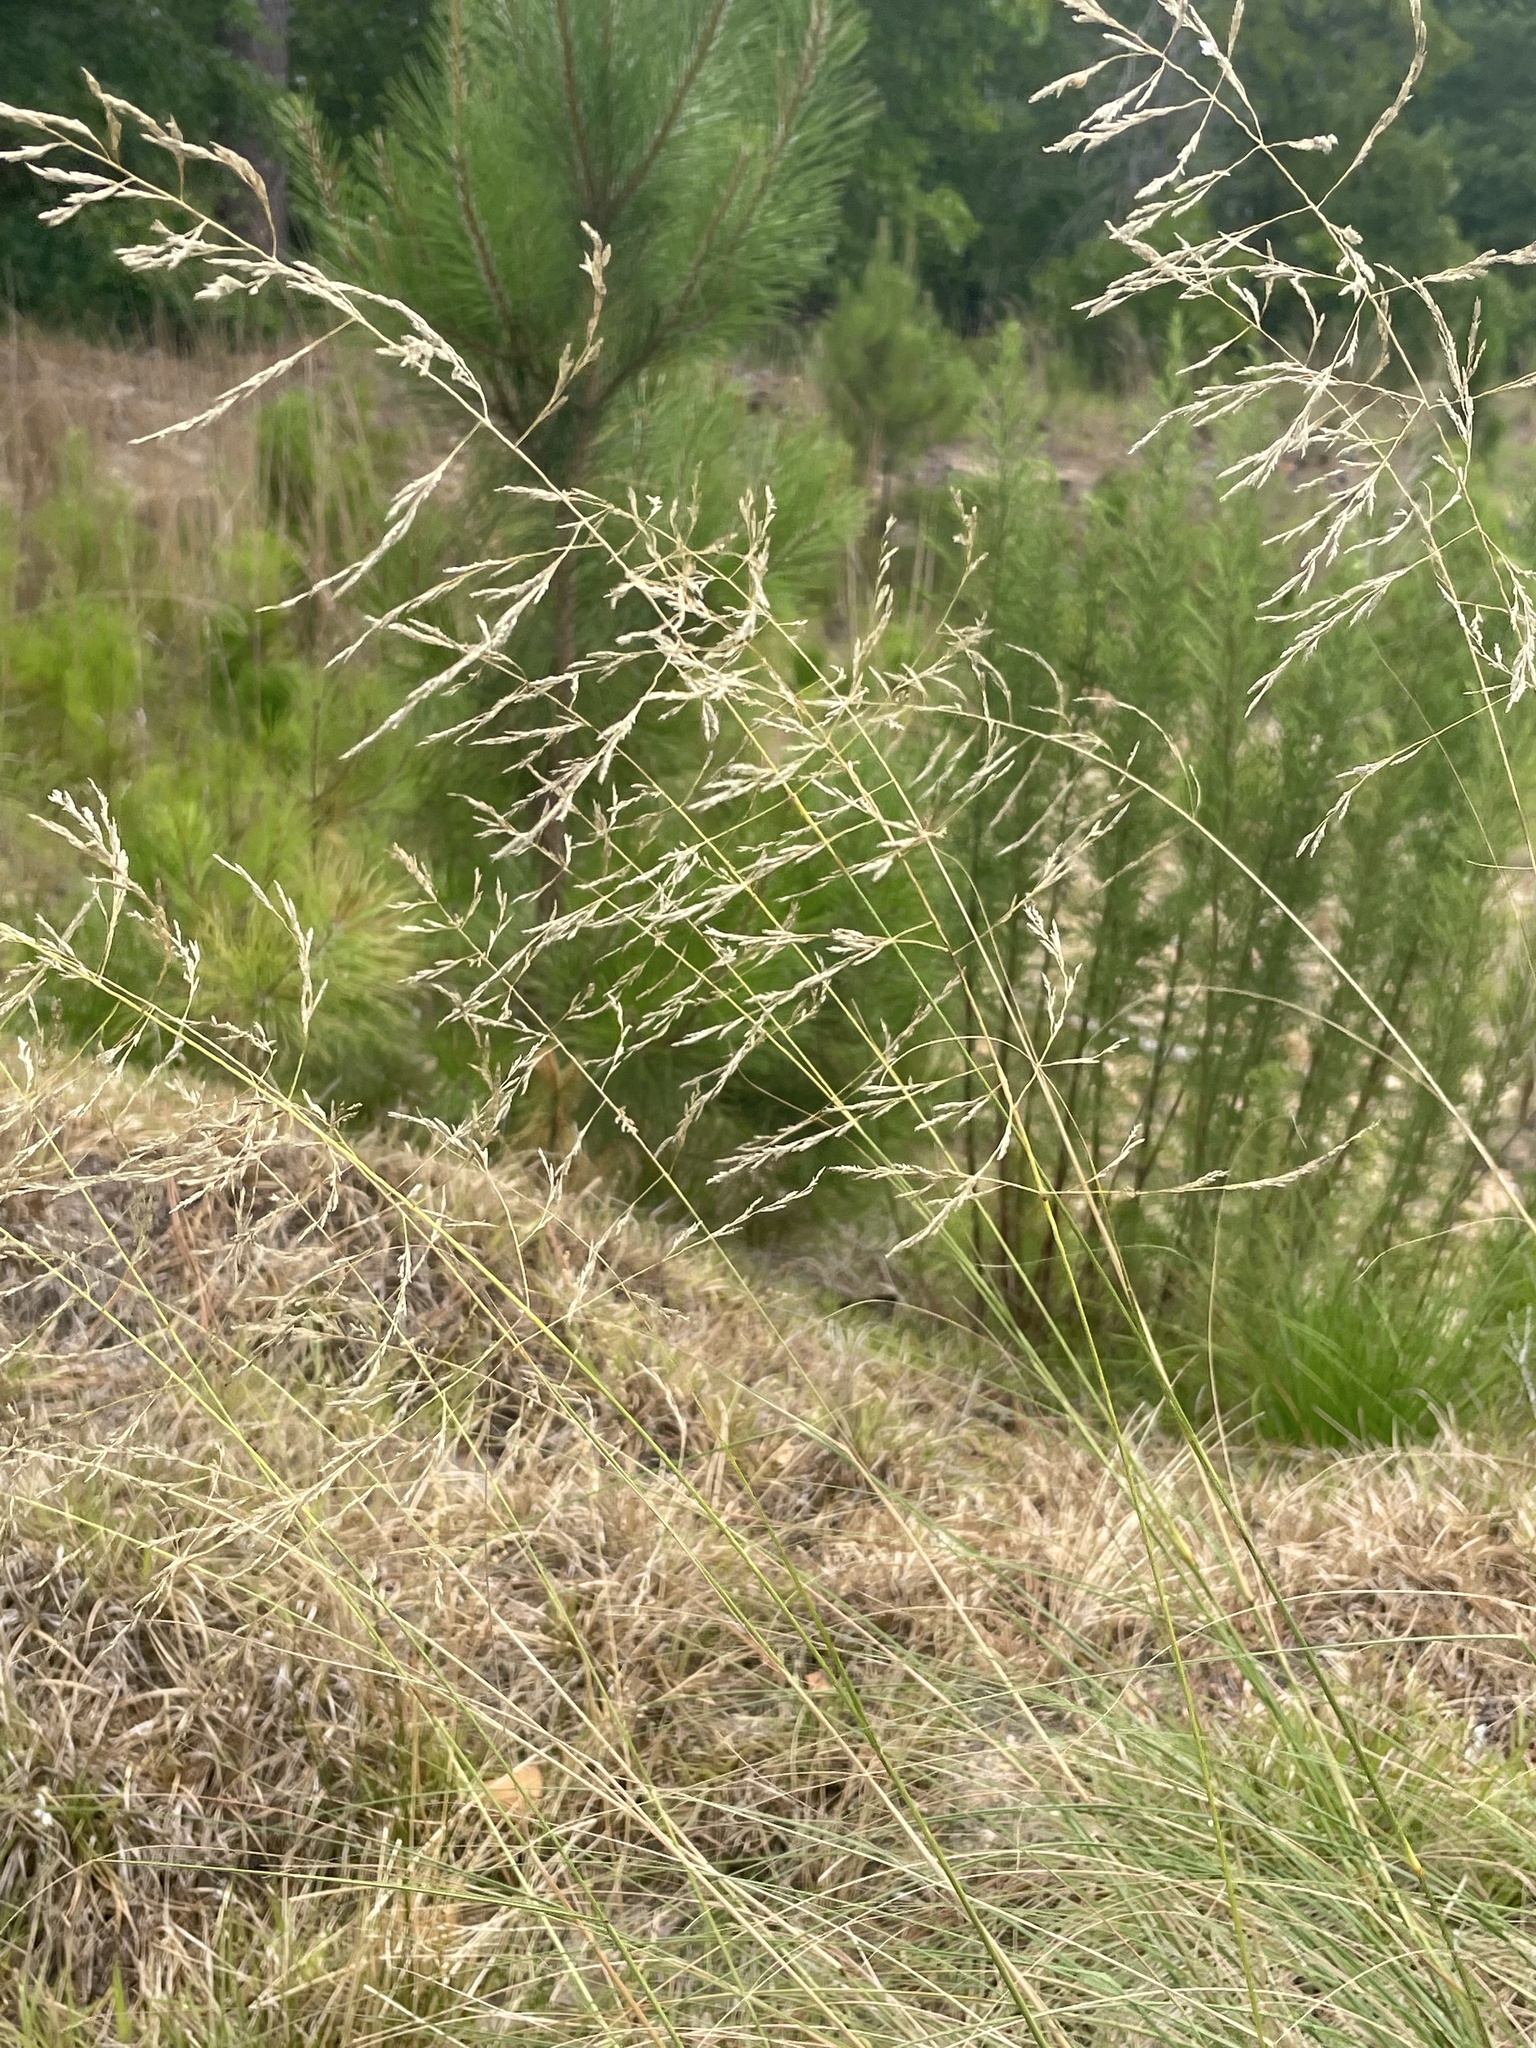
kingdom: Plantae
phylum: Tracheophyta
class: Liliopsida
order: Poales
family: Poaceae
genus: Eragrostis
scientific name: Eragrostis curvula
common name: African love-grass
